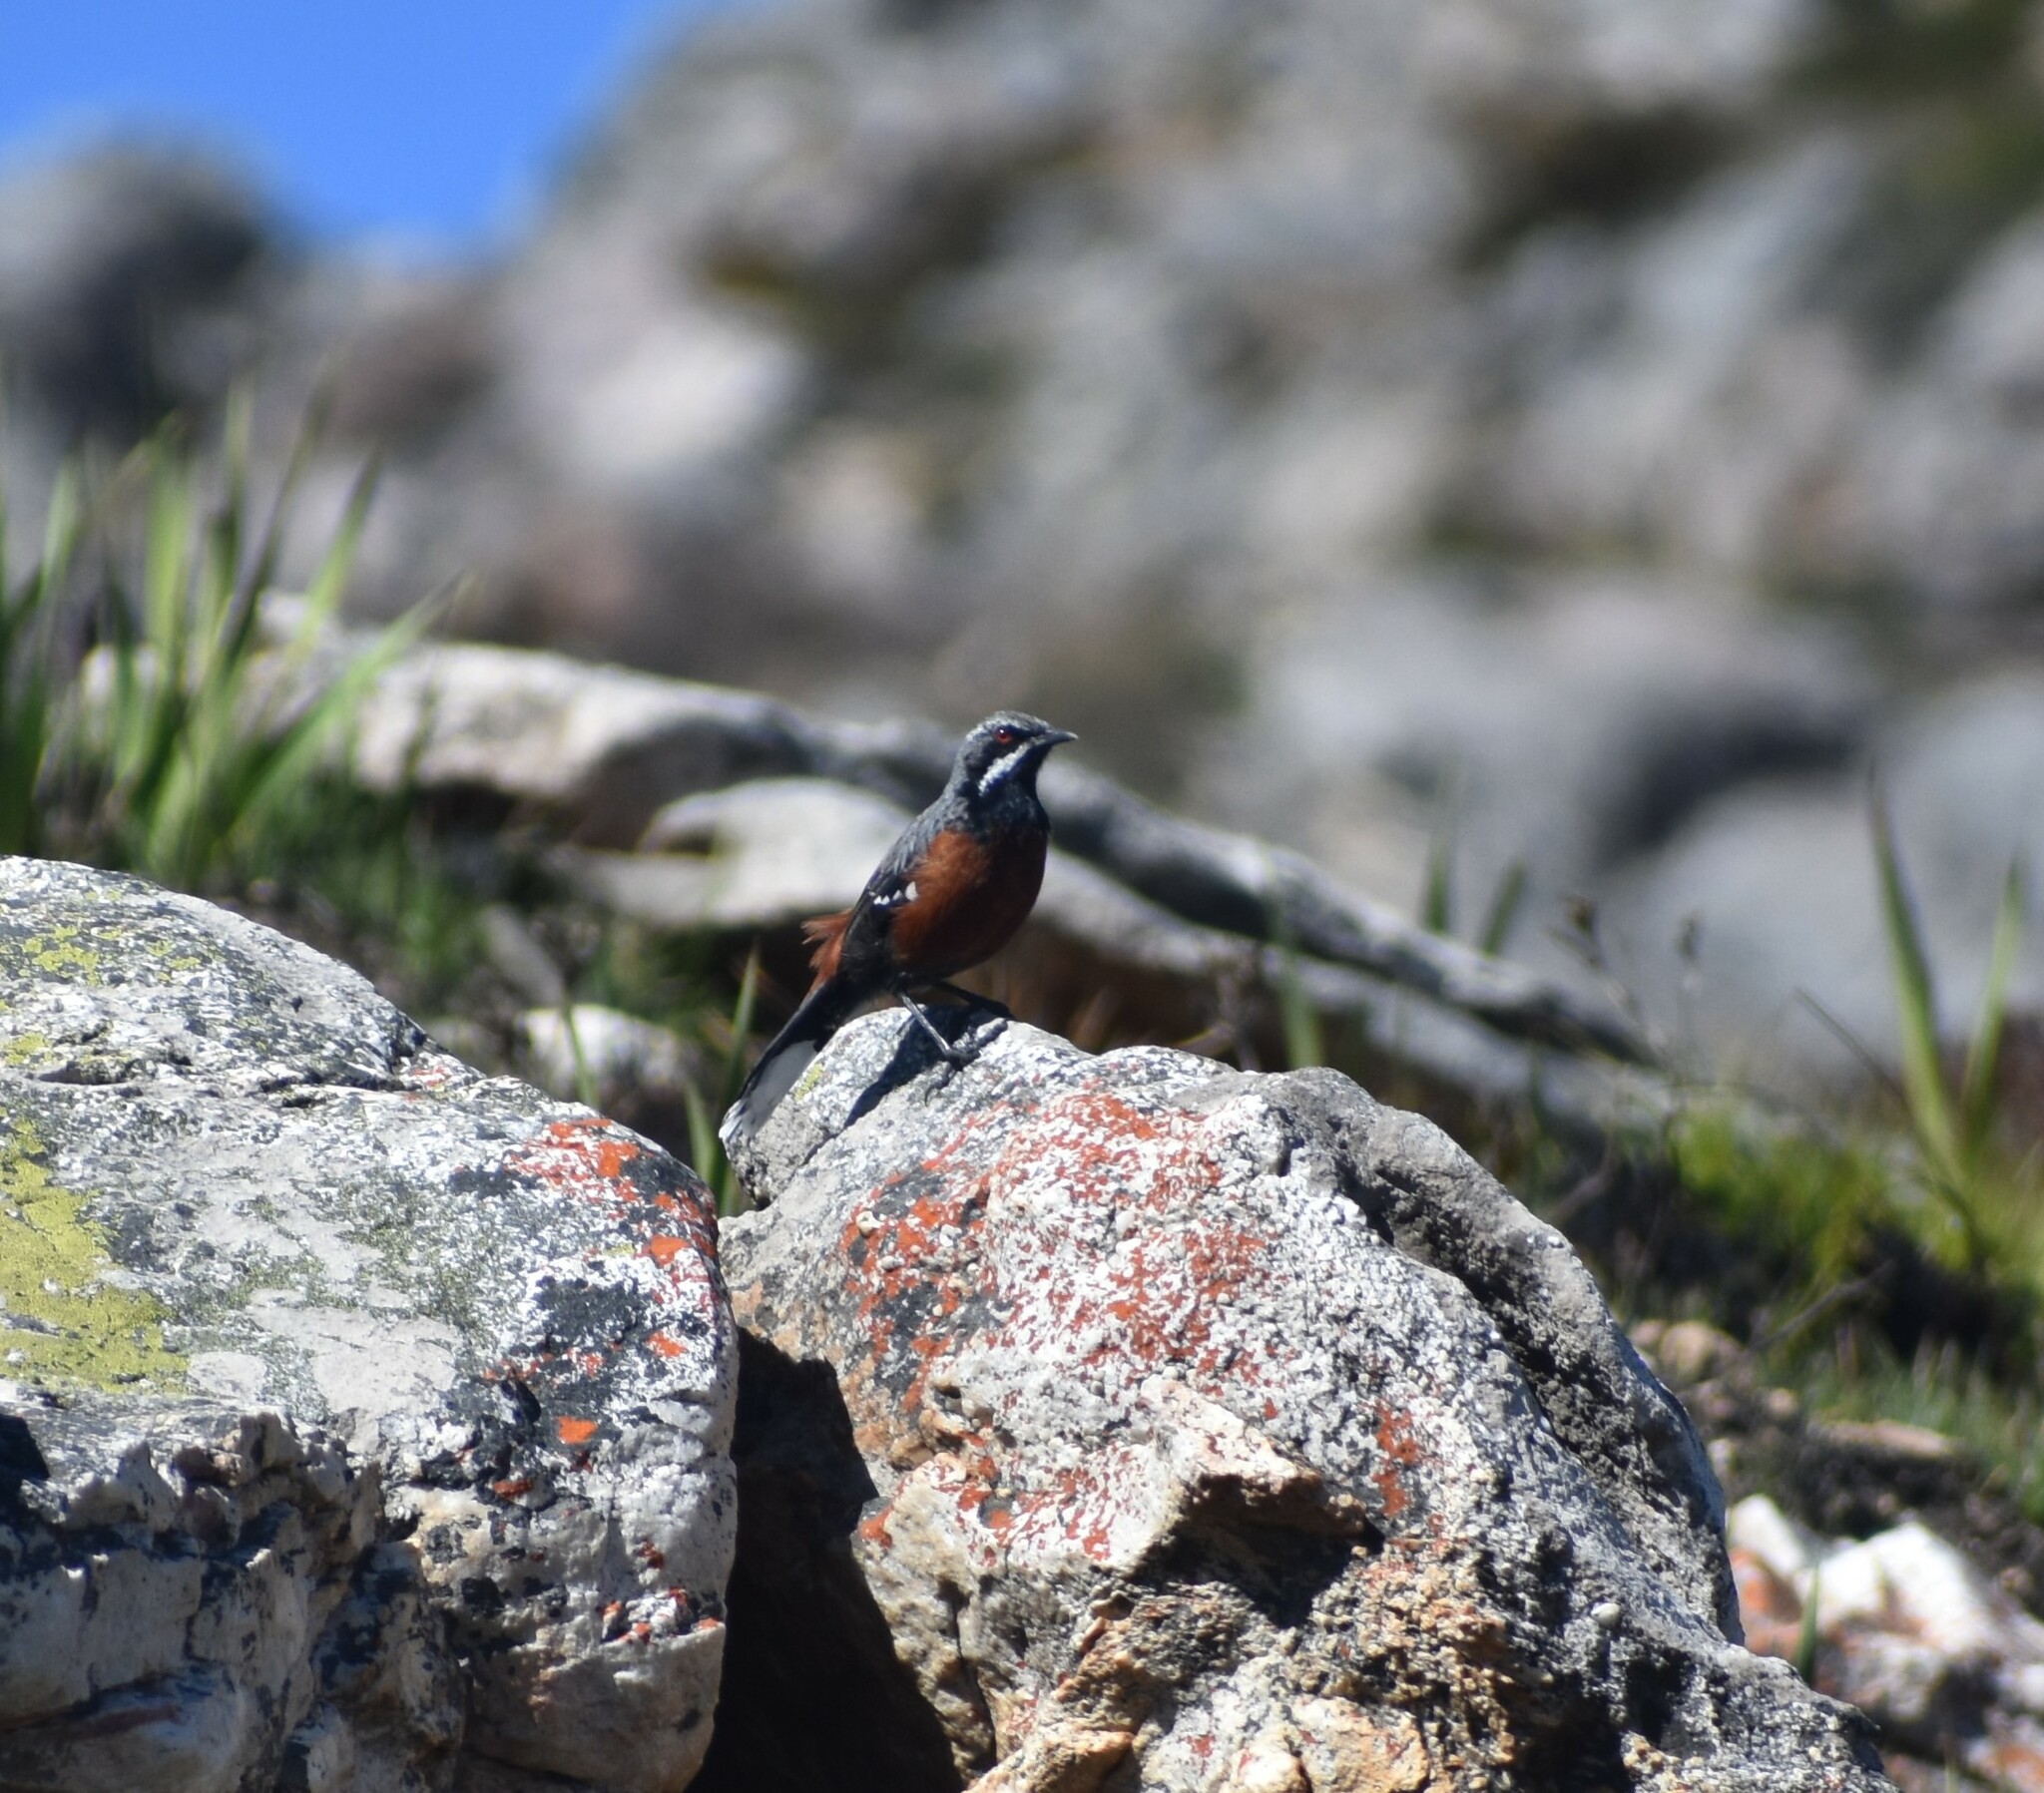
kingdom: Animalia
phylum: Chordata
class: Aves
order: Passeriformes
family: Chaetopidae
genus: Chaetops
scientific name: Chaetops frenatus
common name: Cape rockjumper
